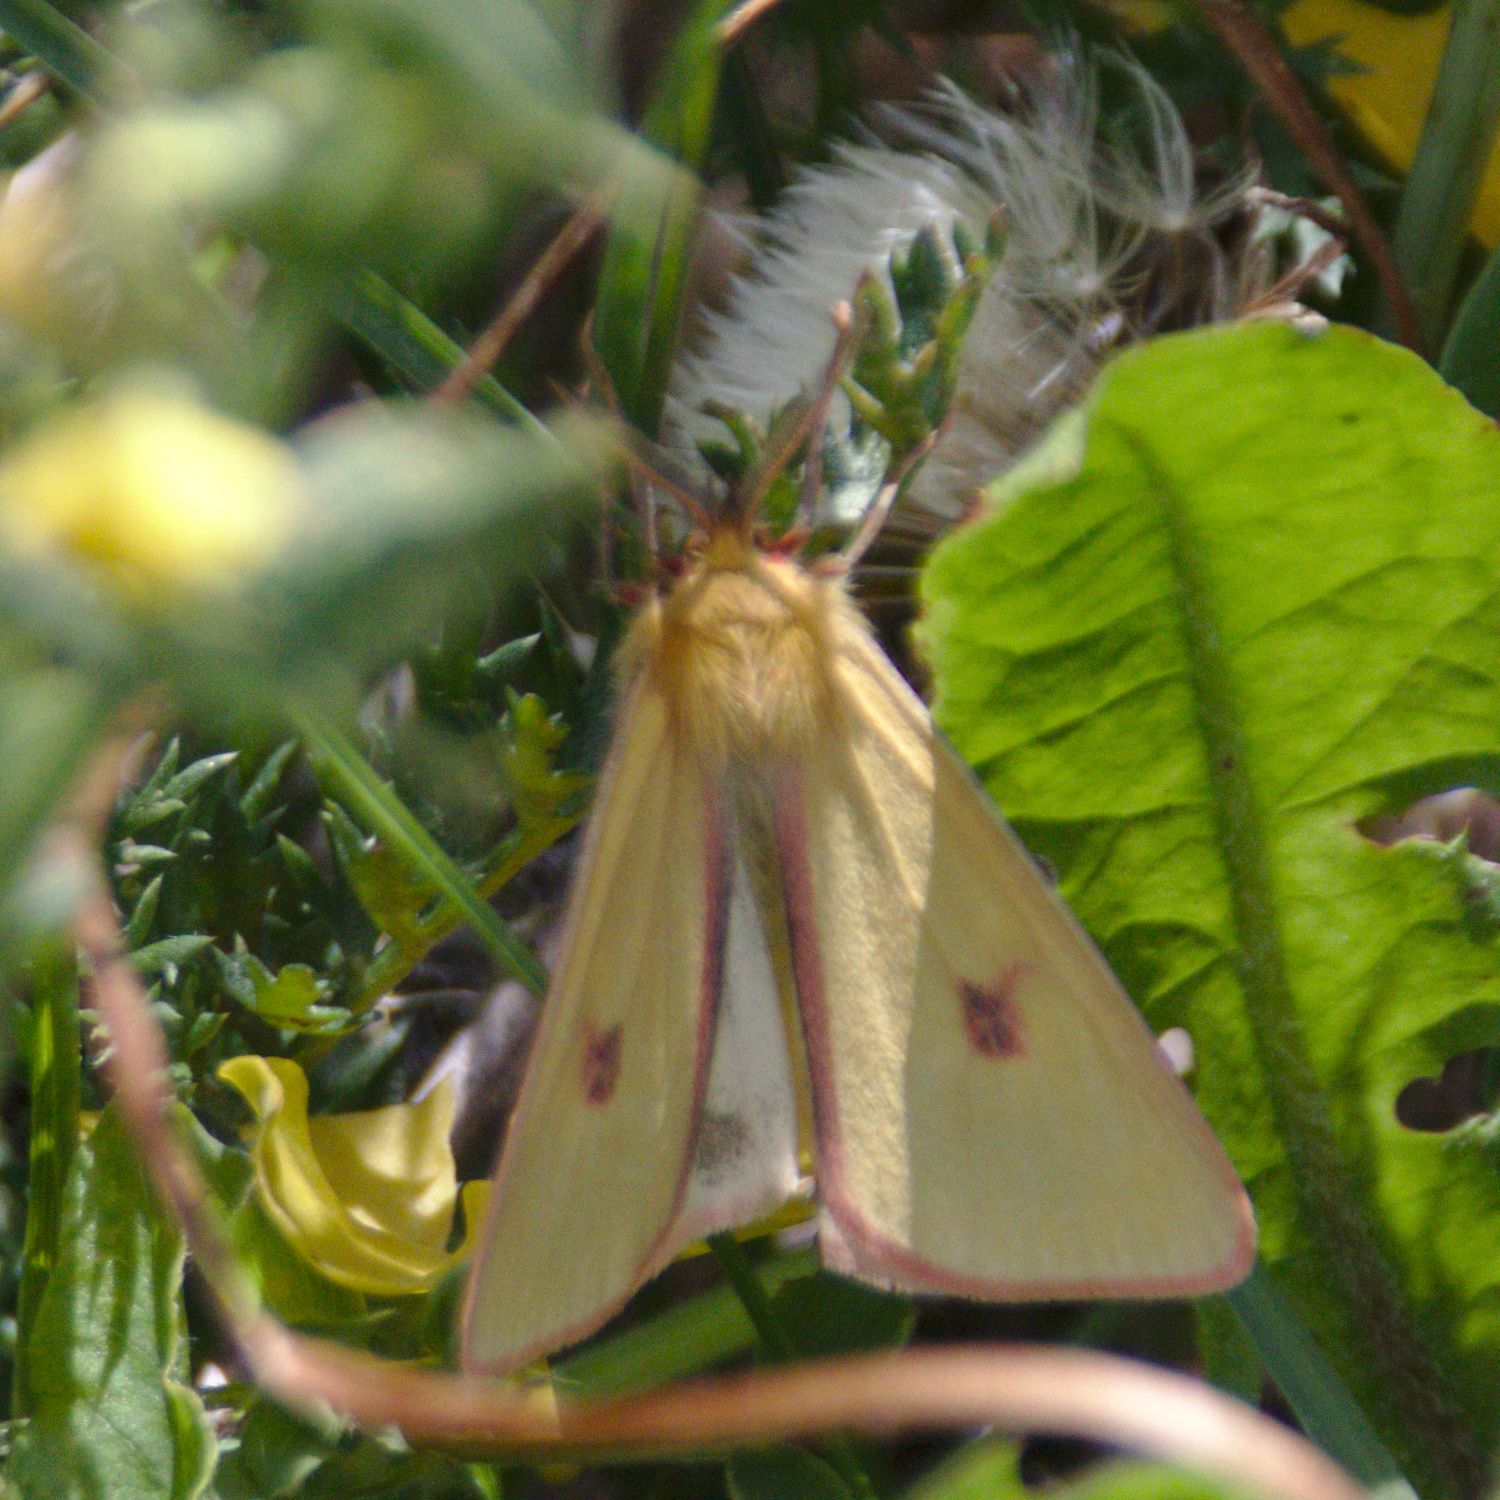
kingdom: Animalia
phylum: Arthropoda
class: Insecta
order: Lepidoptera
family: Erebidae
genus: Diacrisia
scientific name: Diacrisia sannio
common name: Clouded buff
